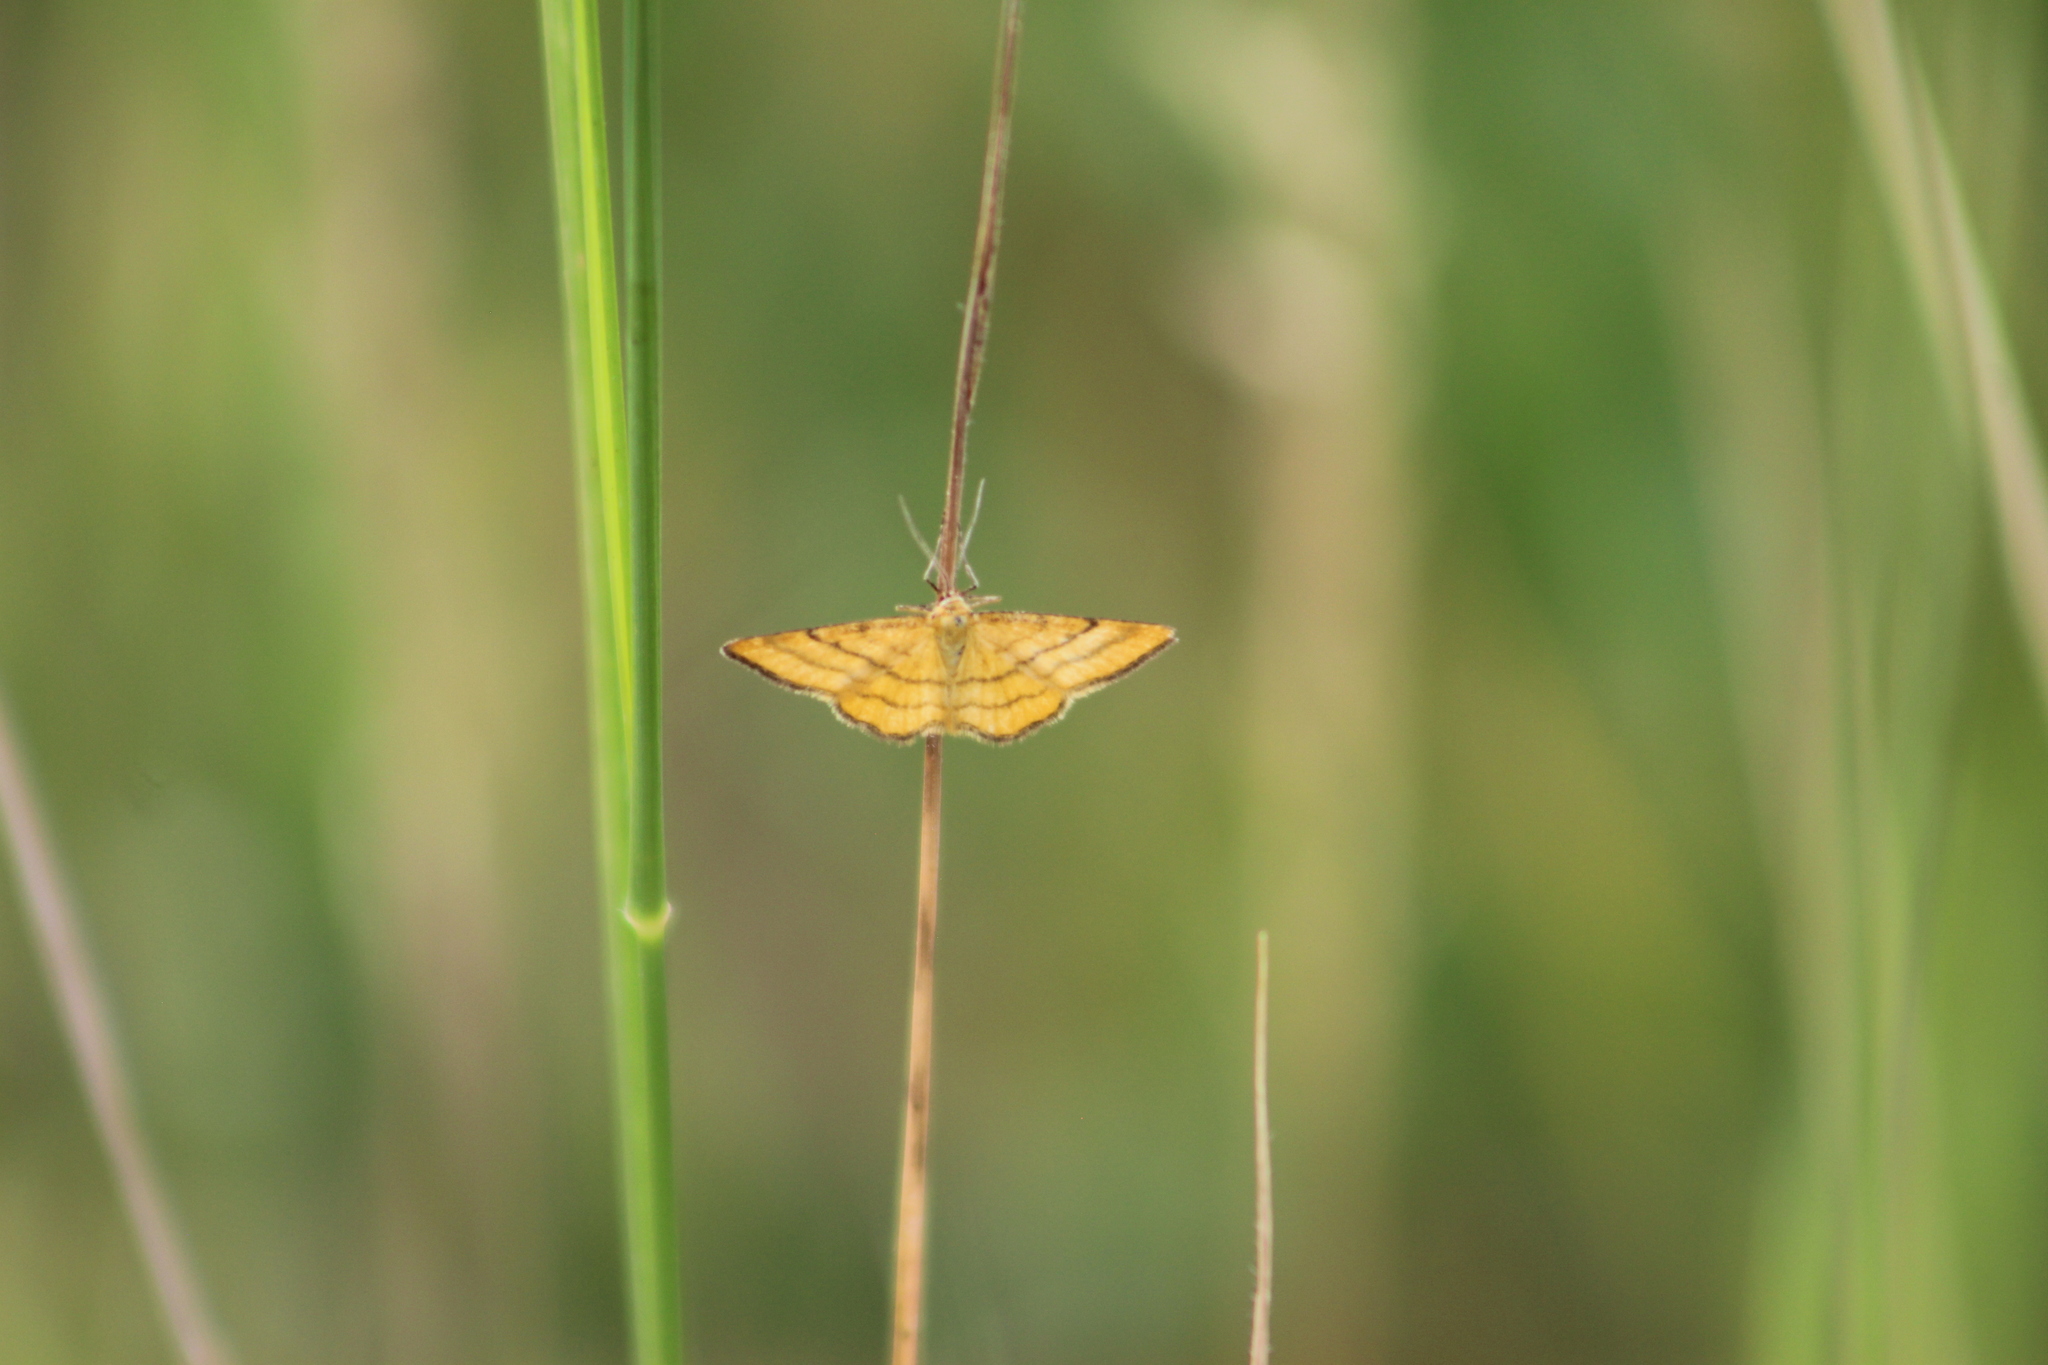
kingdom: Animalia
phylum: Arthropoda
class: Insecta
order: Lepidoptera
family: Geometridae
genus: Idaea
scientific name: Idaea aureolaria
